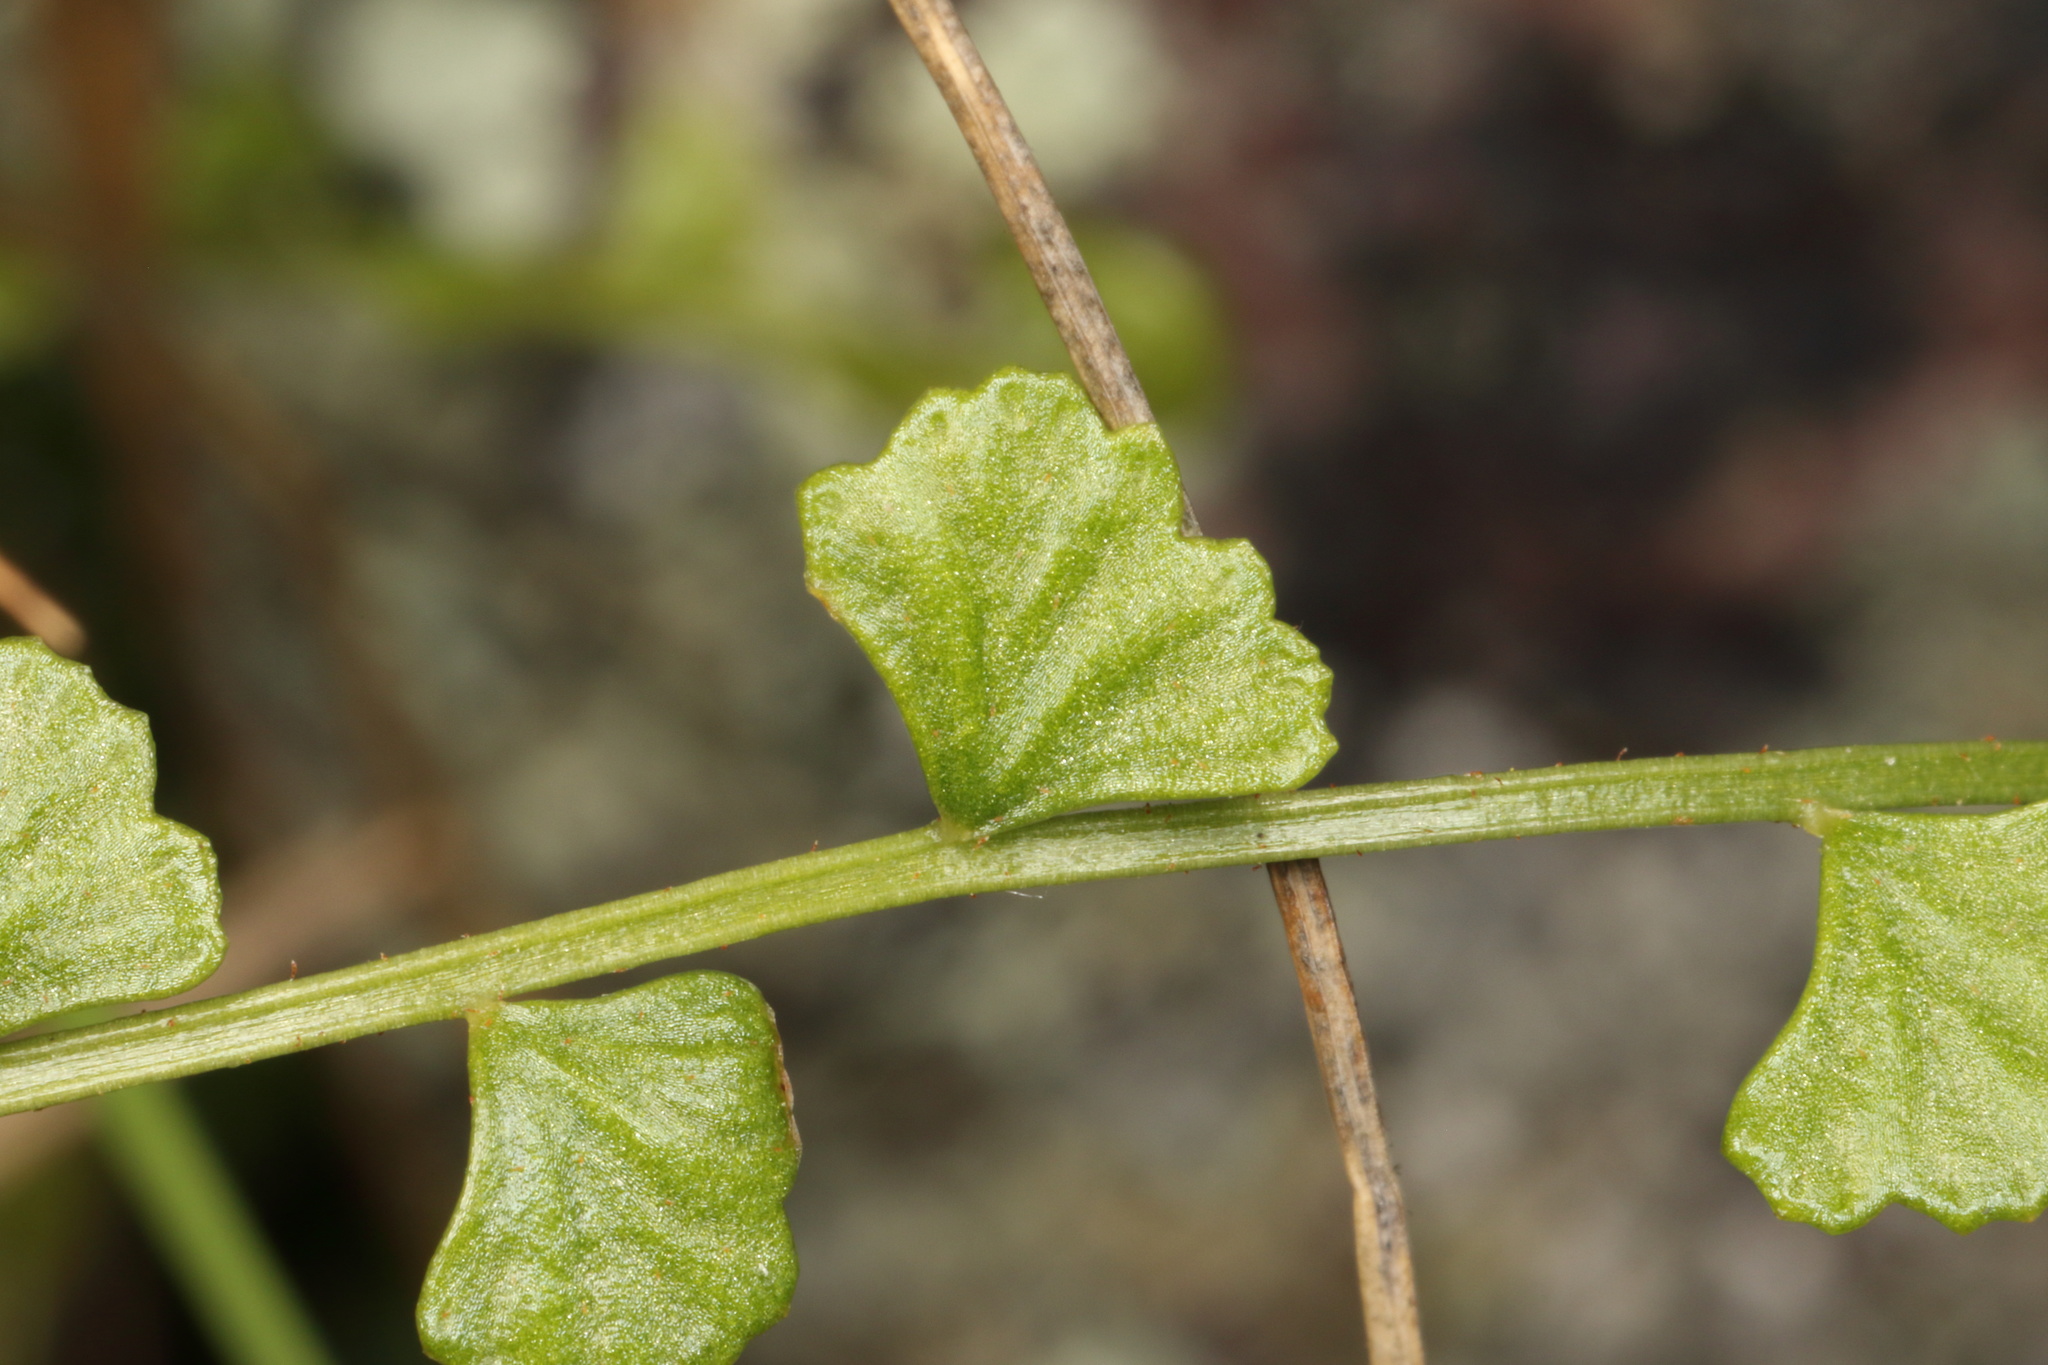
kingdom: Plantae
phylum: Tracheophyta
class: Polypodiopsida
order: Polypodiales
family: Aspleniaceae
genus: Asplenium
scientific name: Asplenium flabellifolium
